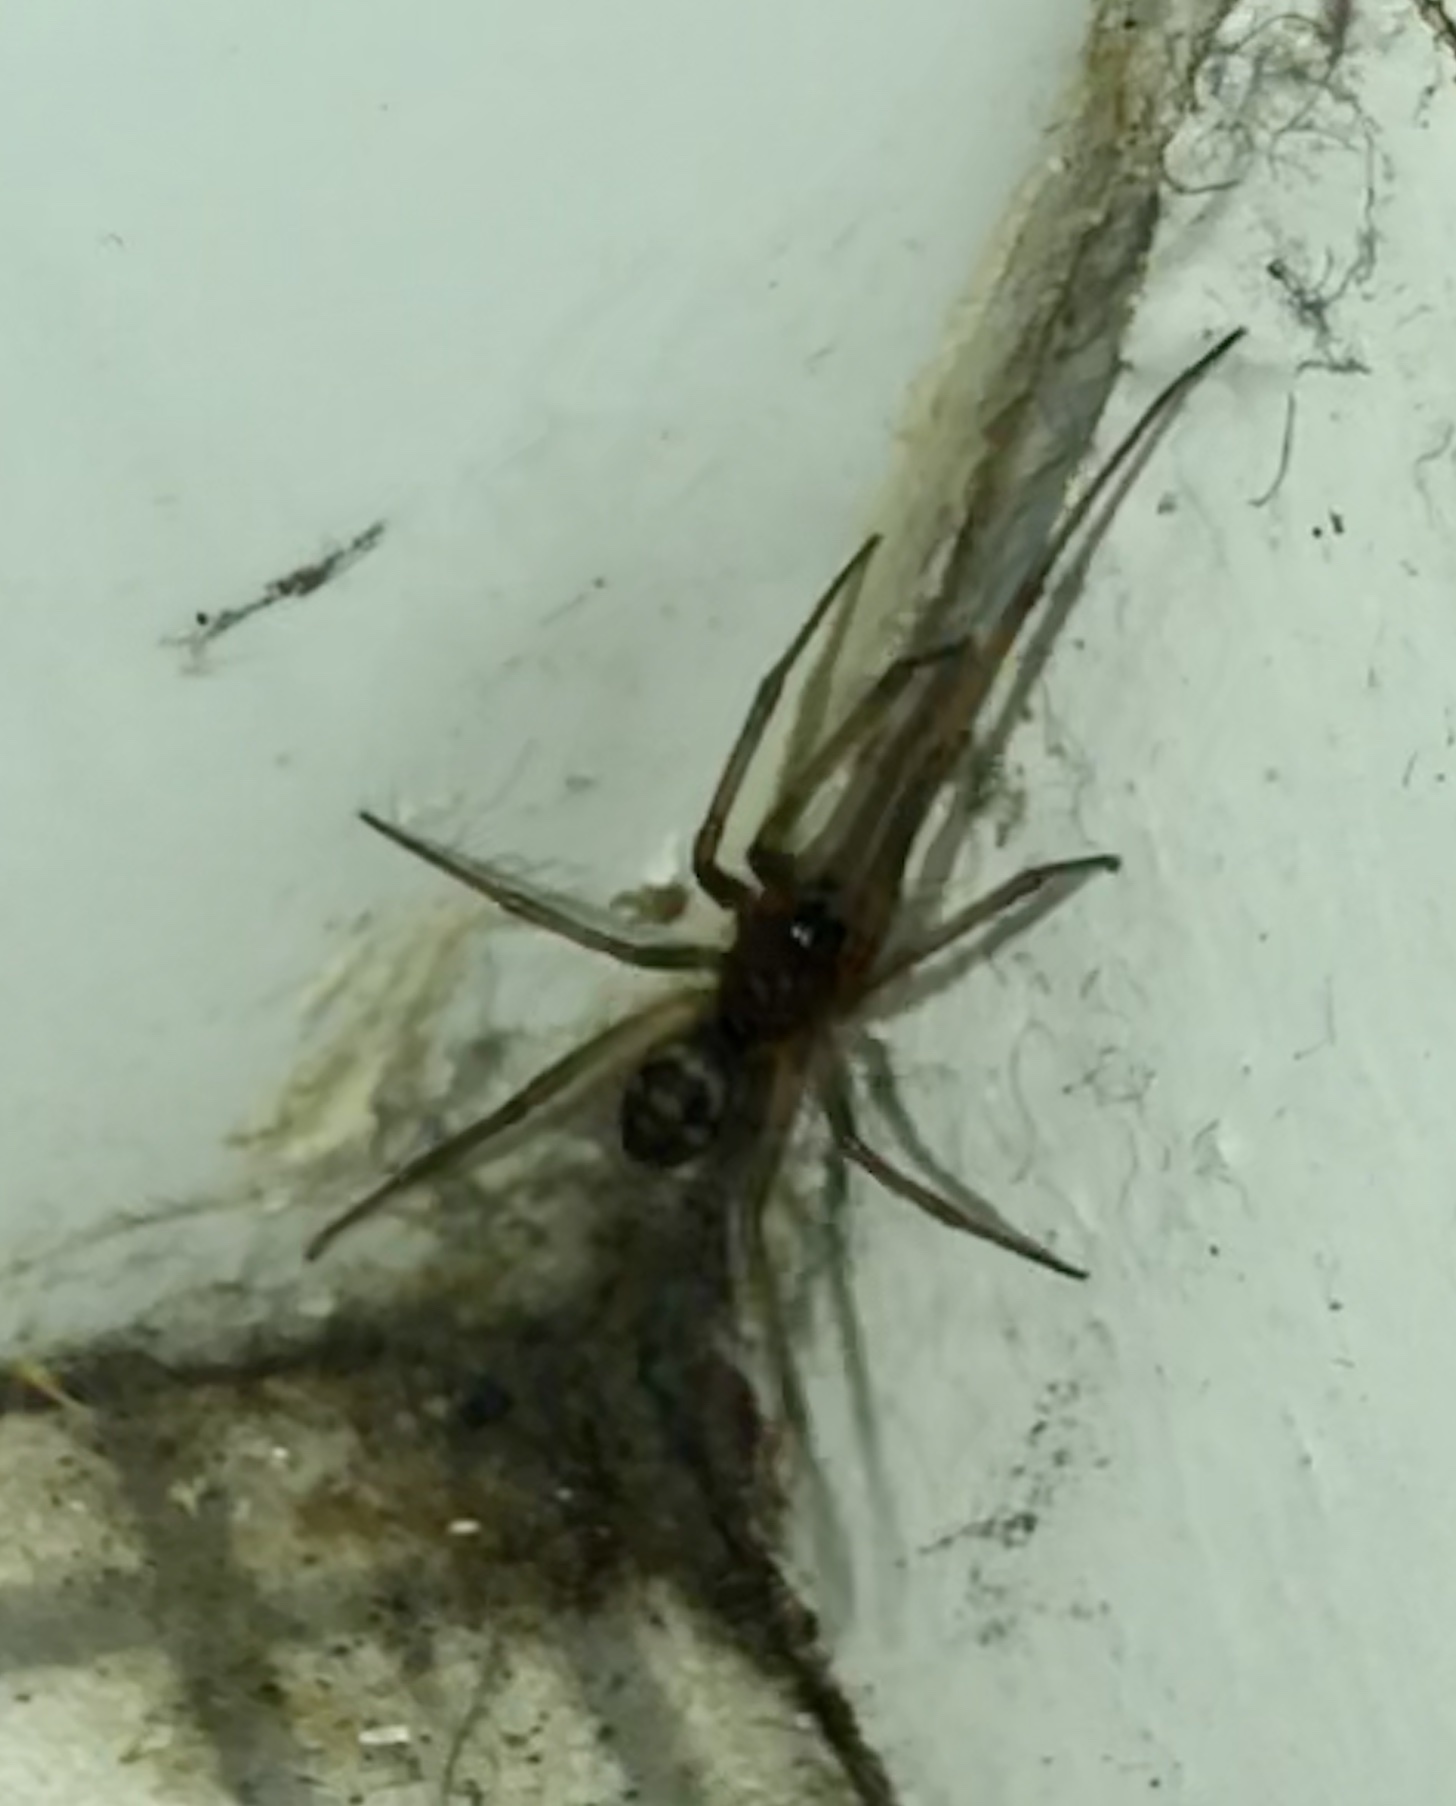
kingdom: Animalia
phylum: Arthropoda
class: Arachnida
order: Araneae
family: Theridiidae
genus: Steatoda
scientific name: Steatoda grossa
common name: False black widow
